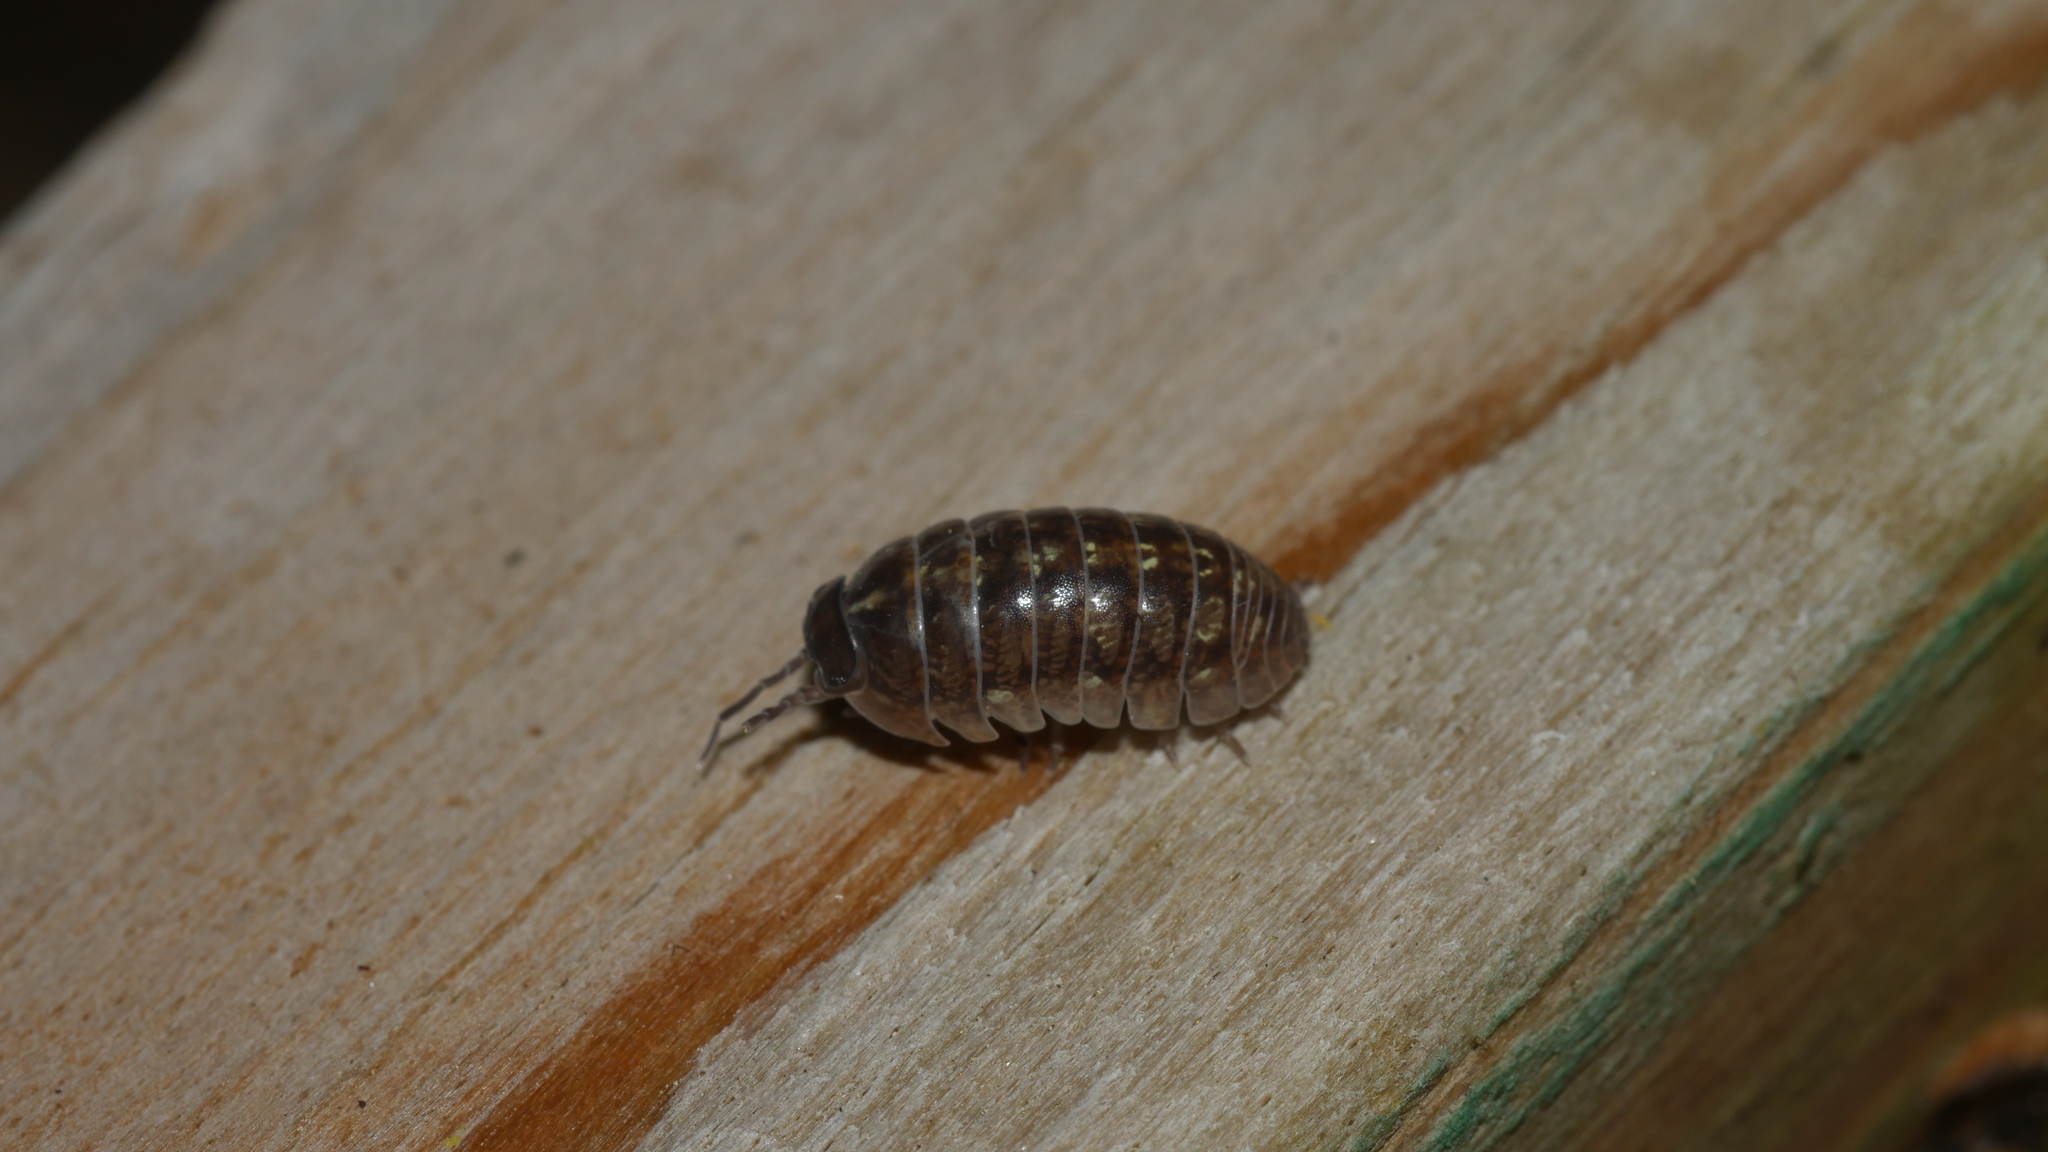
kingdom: Animalia
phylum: Arthropoda
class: Malacostraca
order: Isopoda
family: Armadillidiidae
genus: Armadillidium
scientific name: Armadillidium vulgare
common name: Common pill woodlouse
